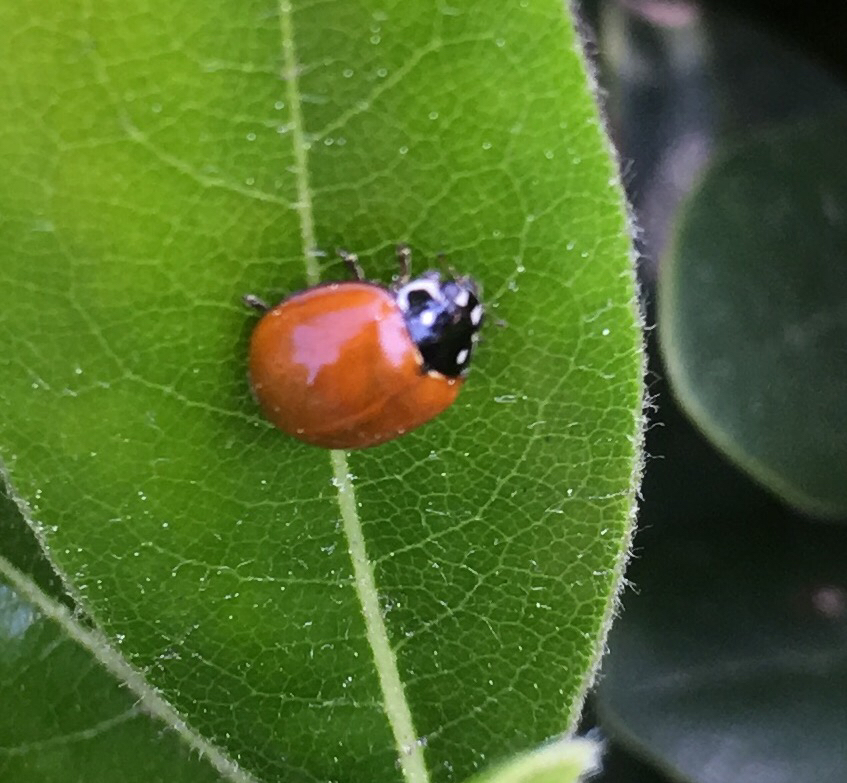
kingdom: Animalia
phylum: Arthropoda
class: Insecta
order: Coleoptera
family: Coccinellidae
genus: Cycloneda
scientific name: Cycloneda sanguinea
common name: Ladybird beetle
